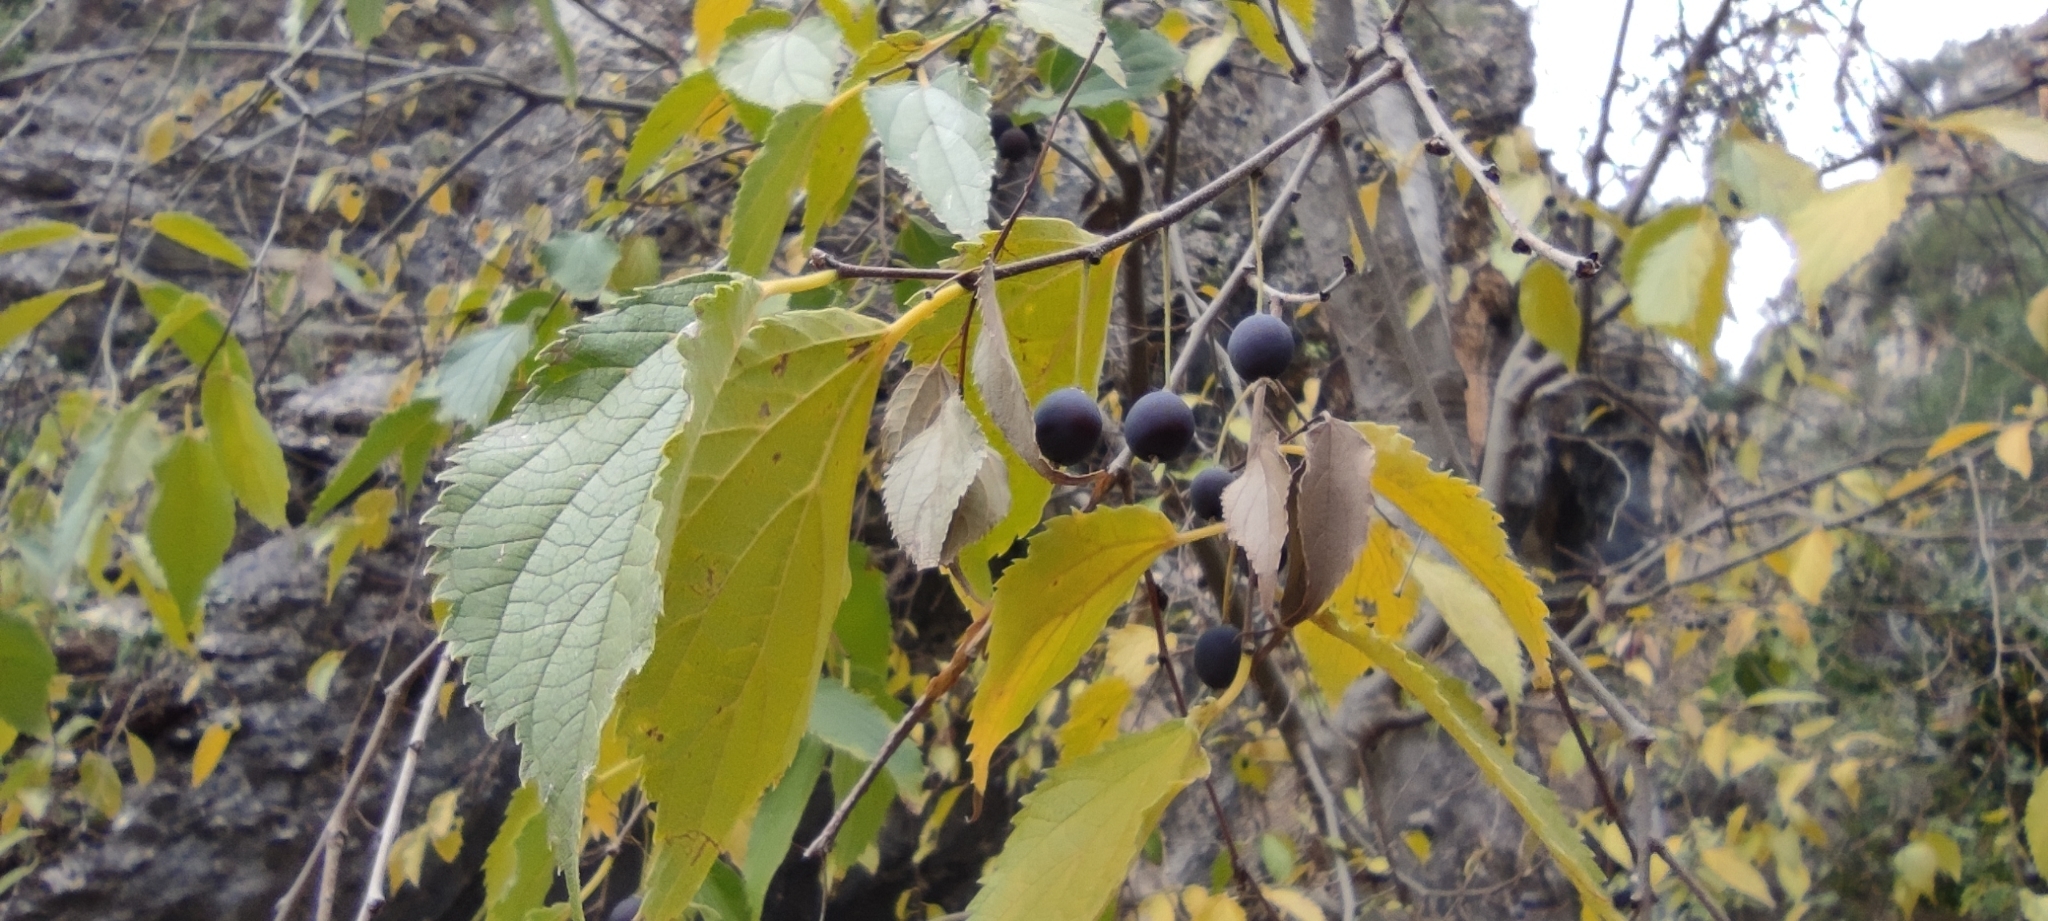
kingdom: Plantae
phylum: Tracheophyta
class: Magnoliopsida
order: Rosales
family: Cannabaceae
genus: Celtis
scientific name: Celtis australis
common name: European hackberry
